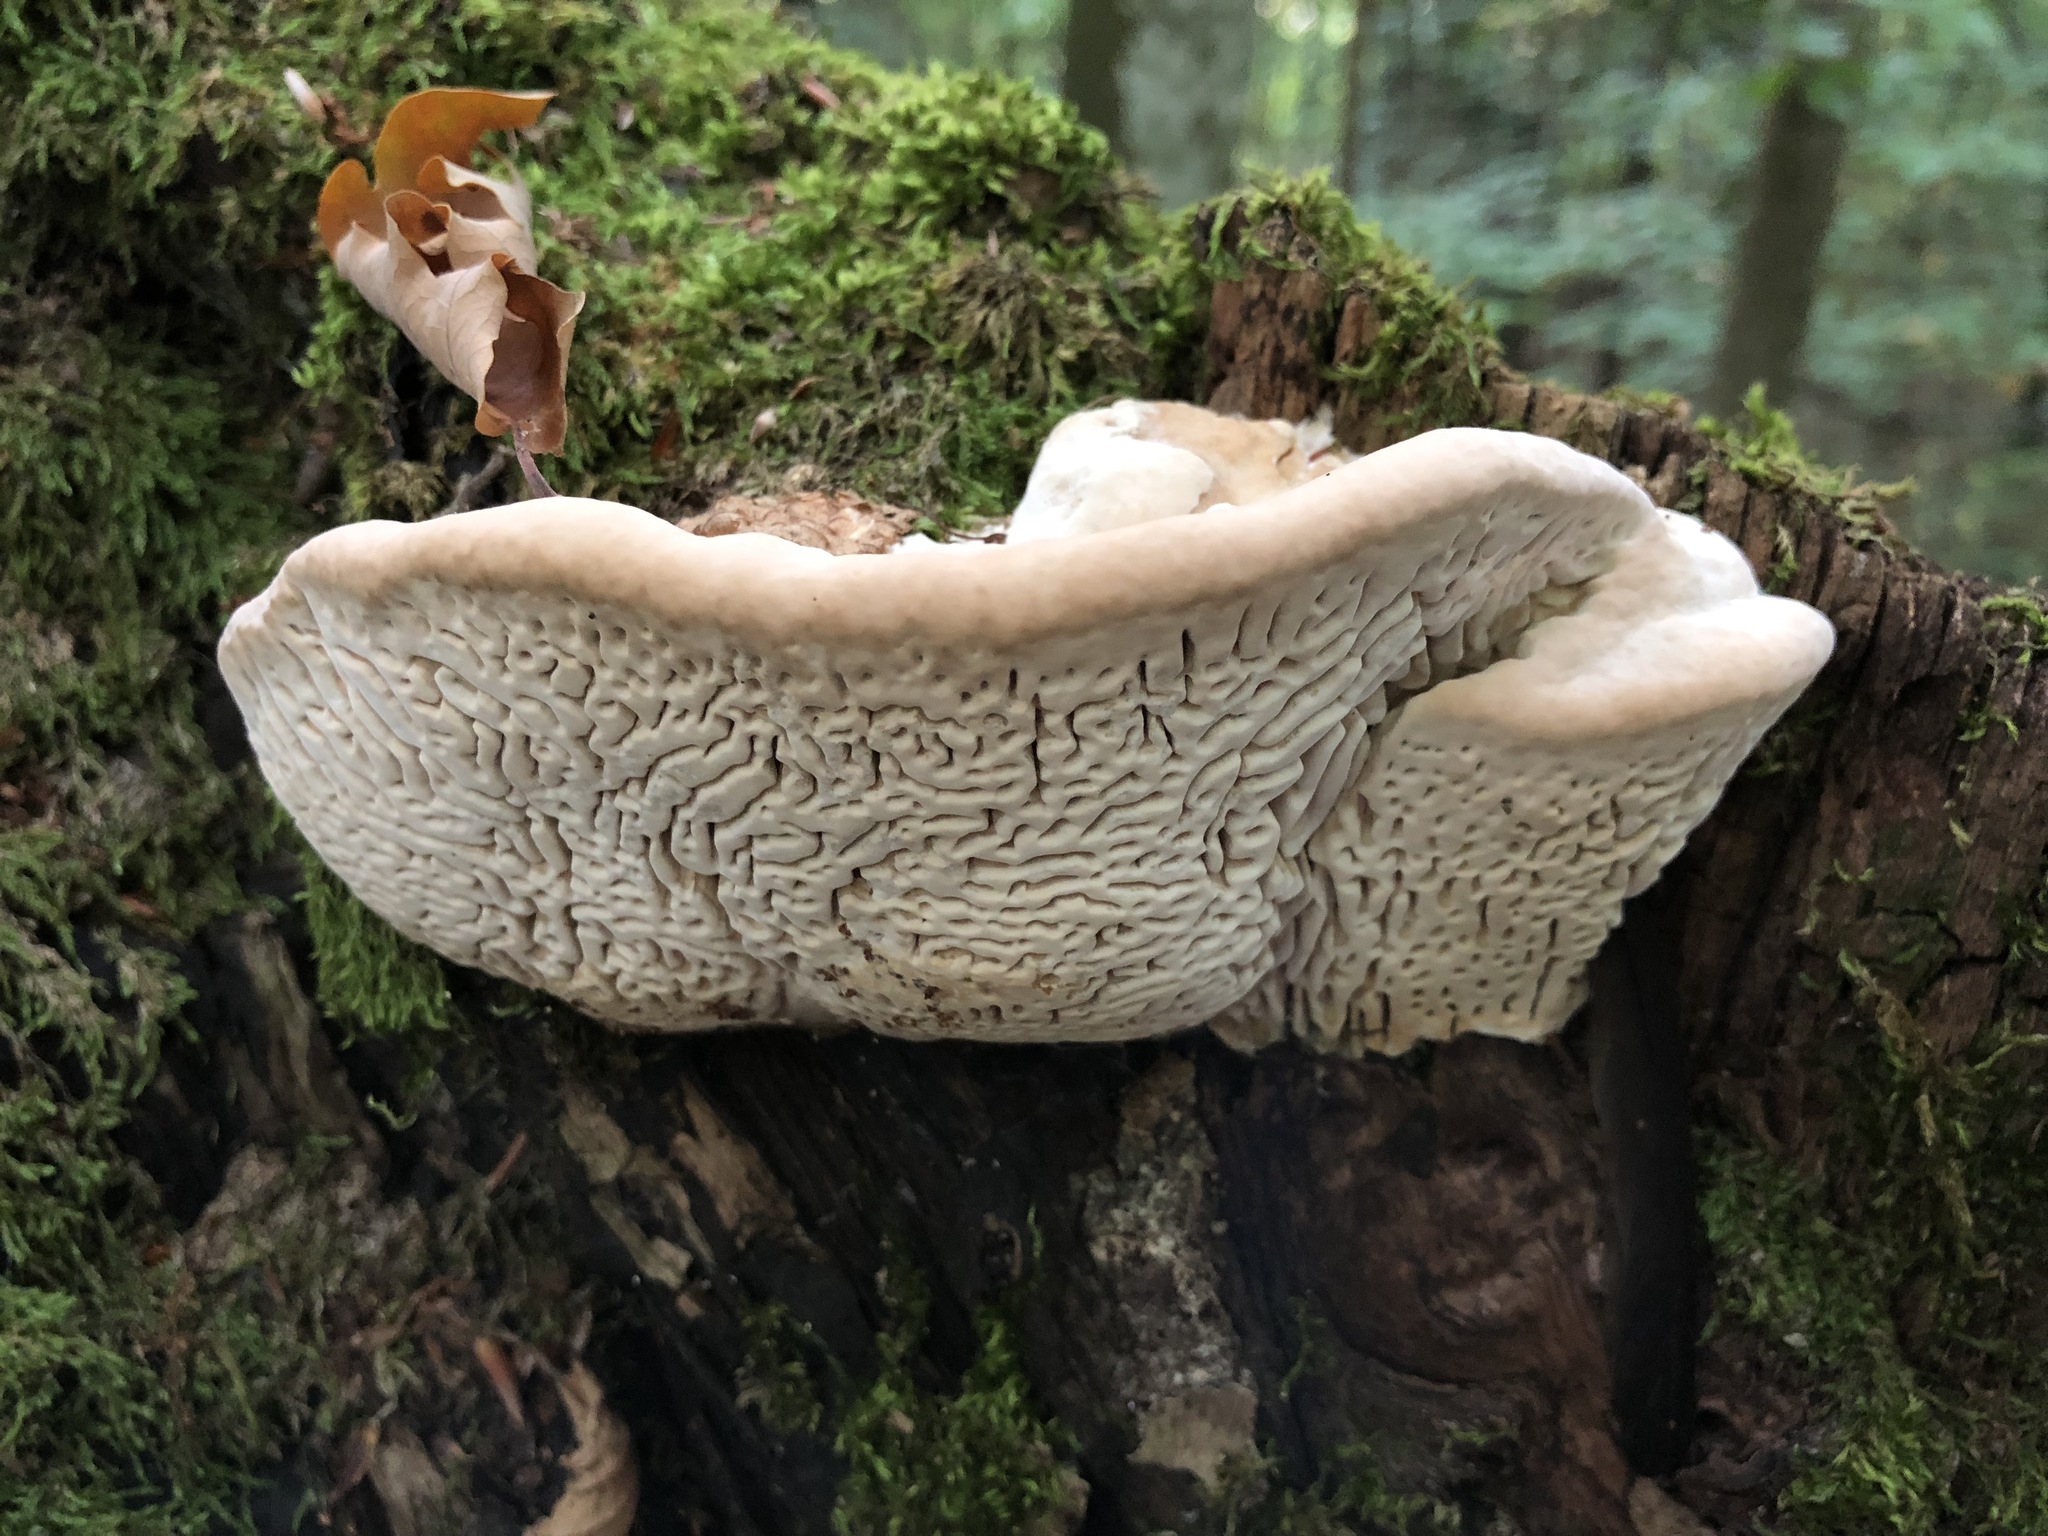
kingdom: Fungi
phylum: Basidiomycota
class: Agaricomycetes
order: Polyporales
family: Fomitopsidaceae
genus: Fomitopsis
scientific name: Fomitopsis
